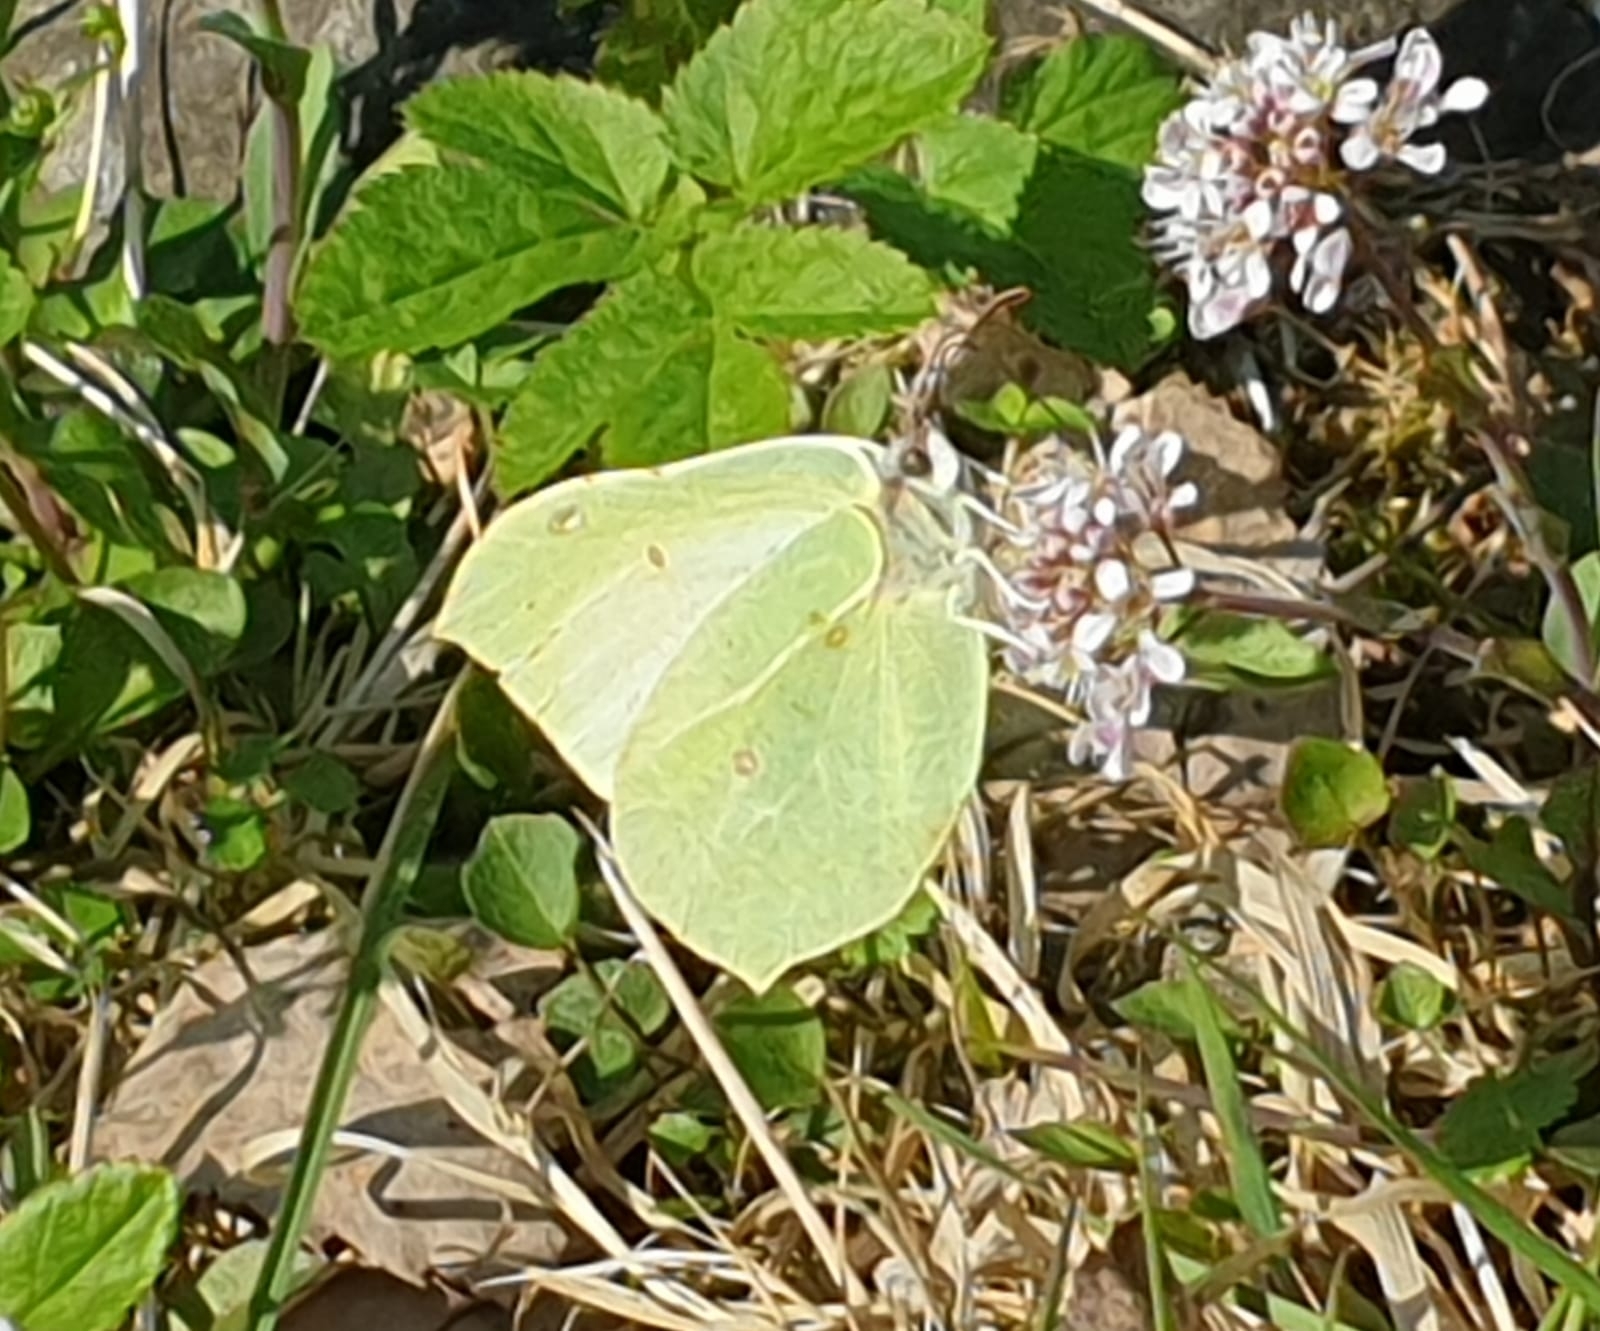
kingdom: Animalia
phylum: Arthropoda
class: Insecta
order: Lepidoptera
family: Pieridae
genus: Gonepteryx
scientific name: Gonepteryx rhamni
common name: Brimstone
